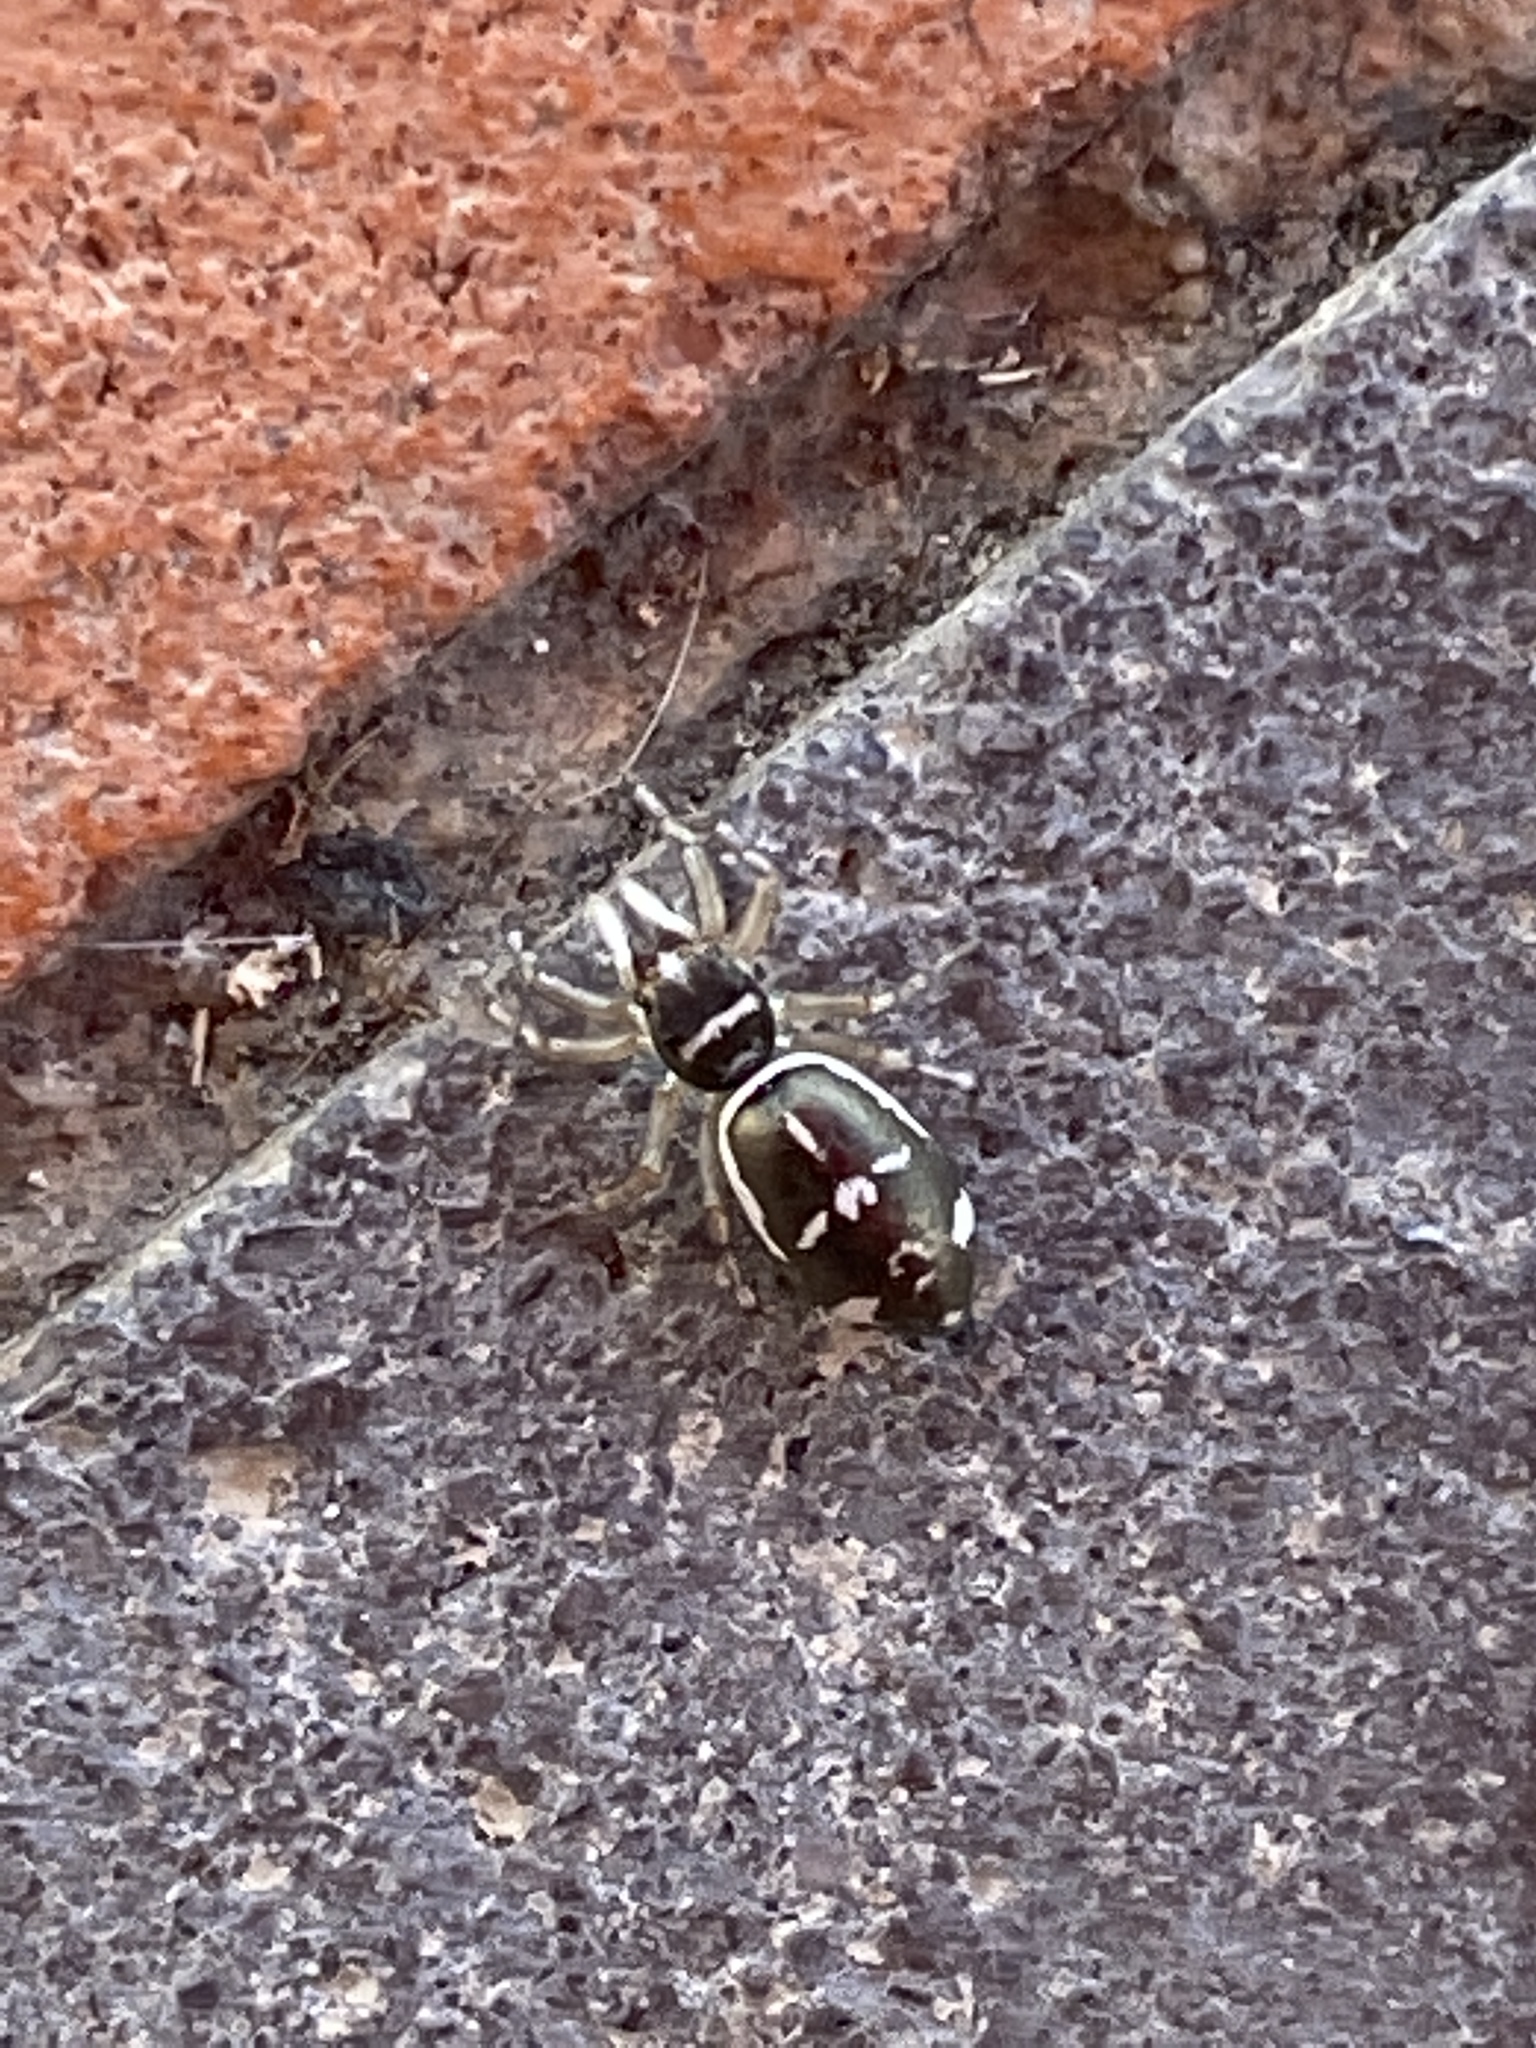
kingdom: Animalia
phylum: Arthropoda
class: Arachnida
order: Araneae
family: Salticidae
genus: Cosmophasis
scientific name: Cosmophasis baehrae
